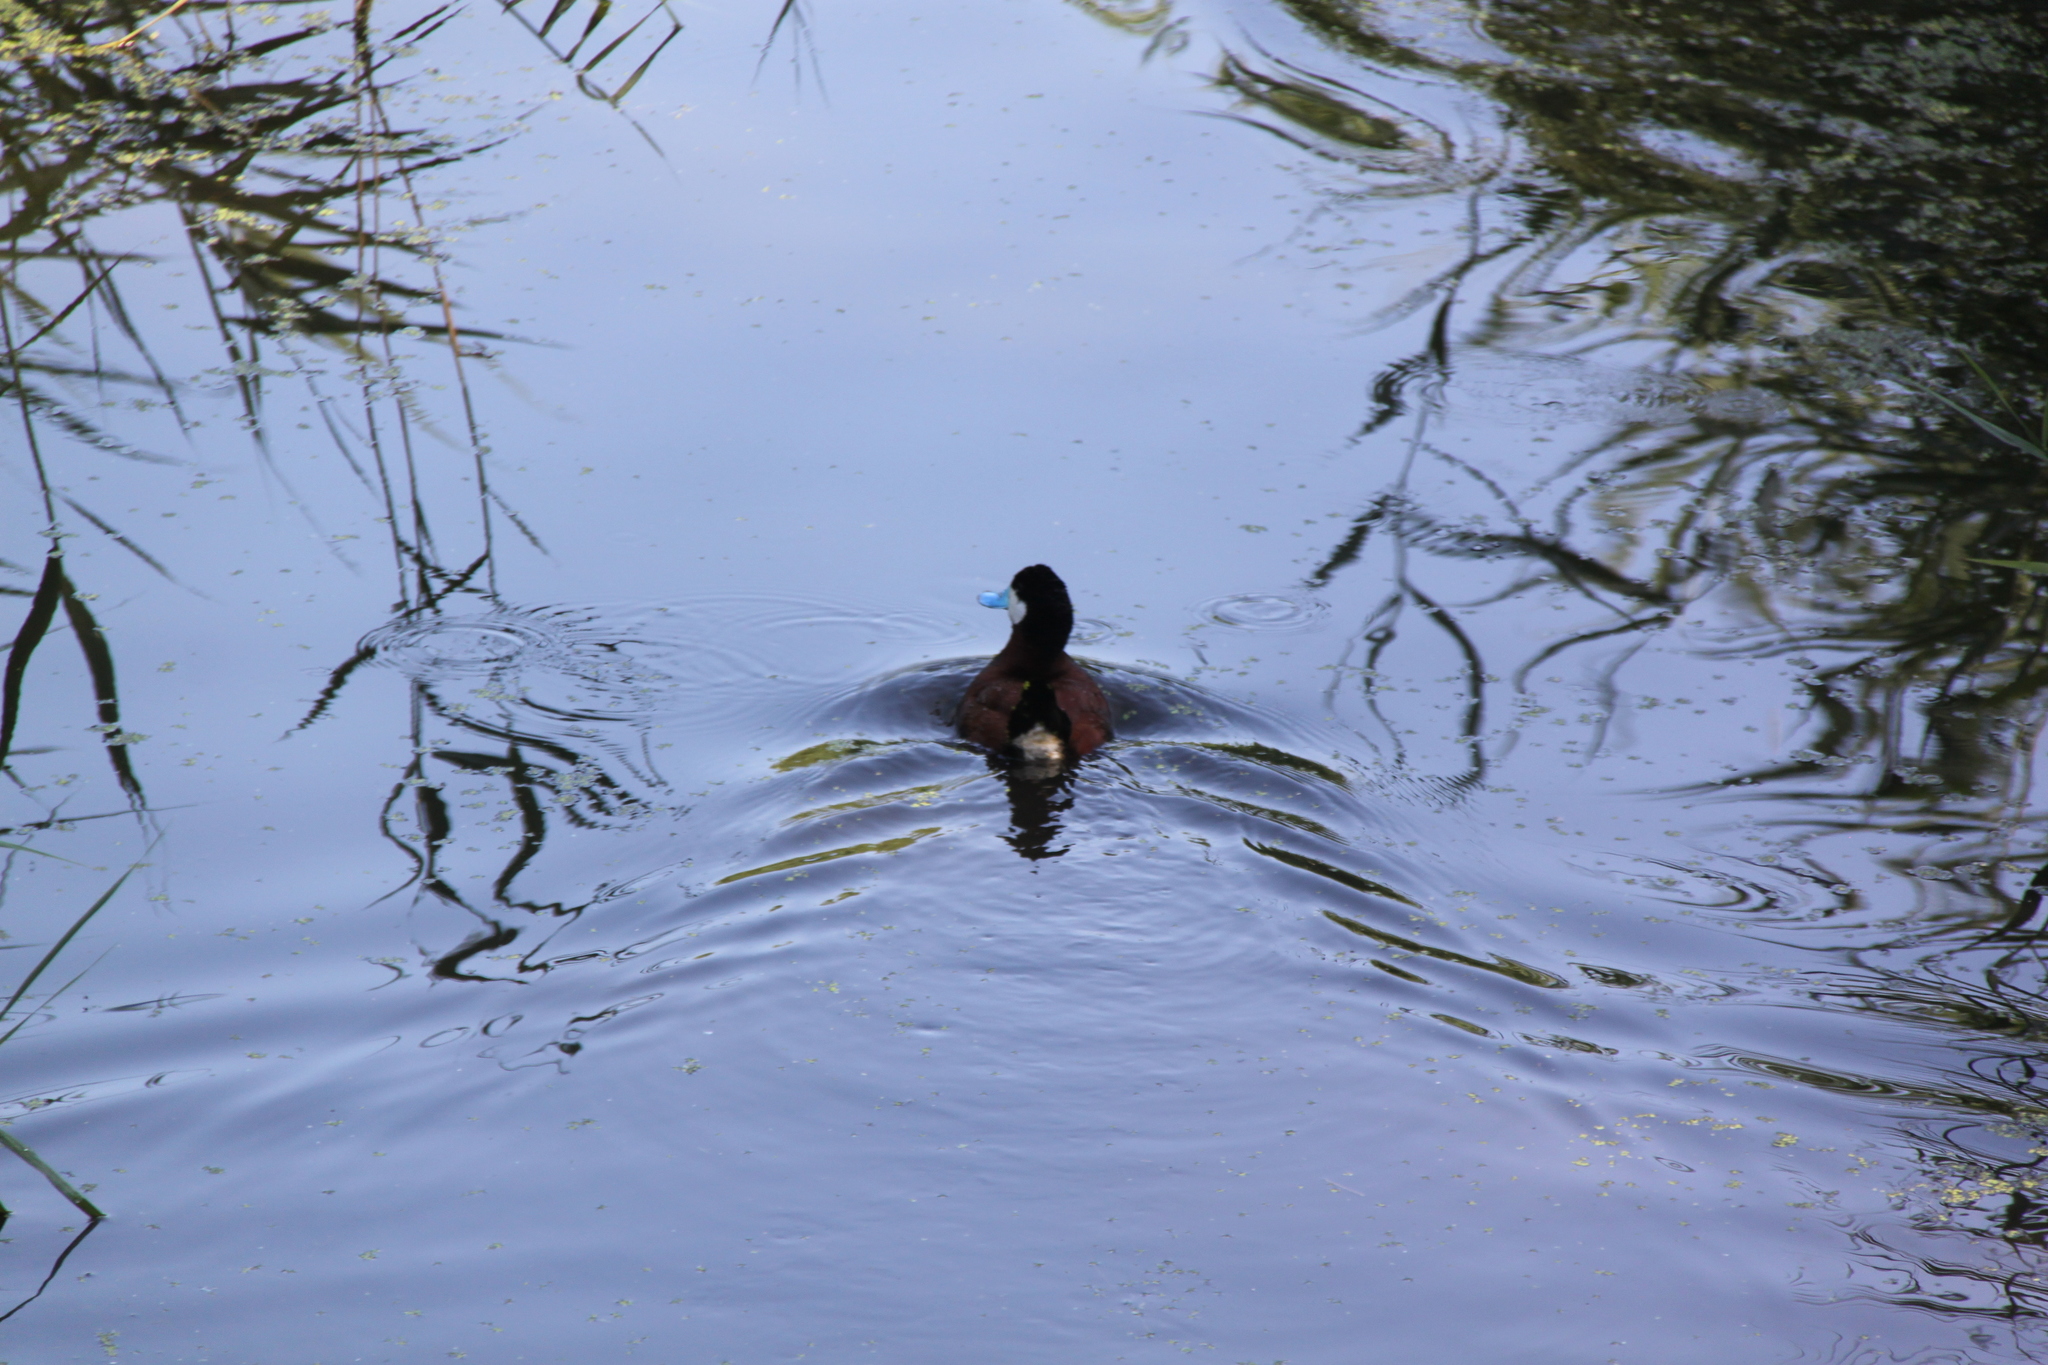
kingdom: Animalia
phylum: Chordata
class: Aves
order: Anseriformes
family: Anatidae
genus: Oxyura
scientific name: Oxyura jamaicensis
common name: Ruddy duck
